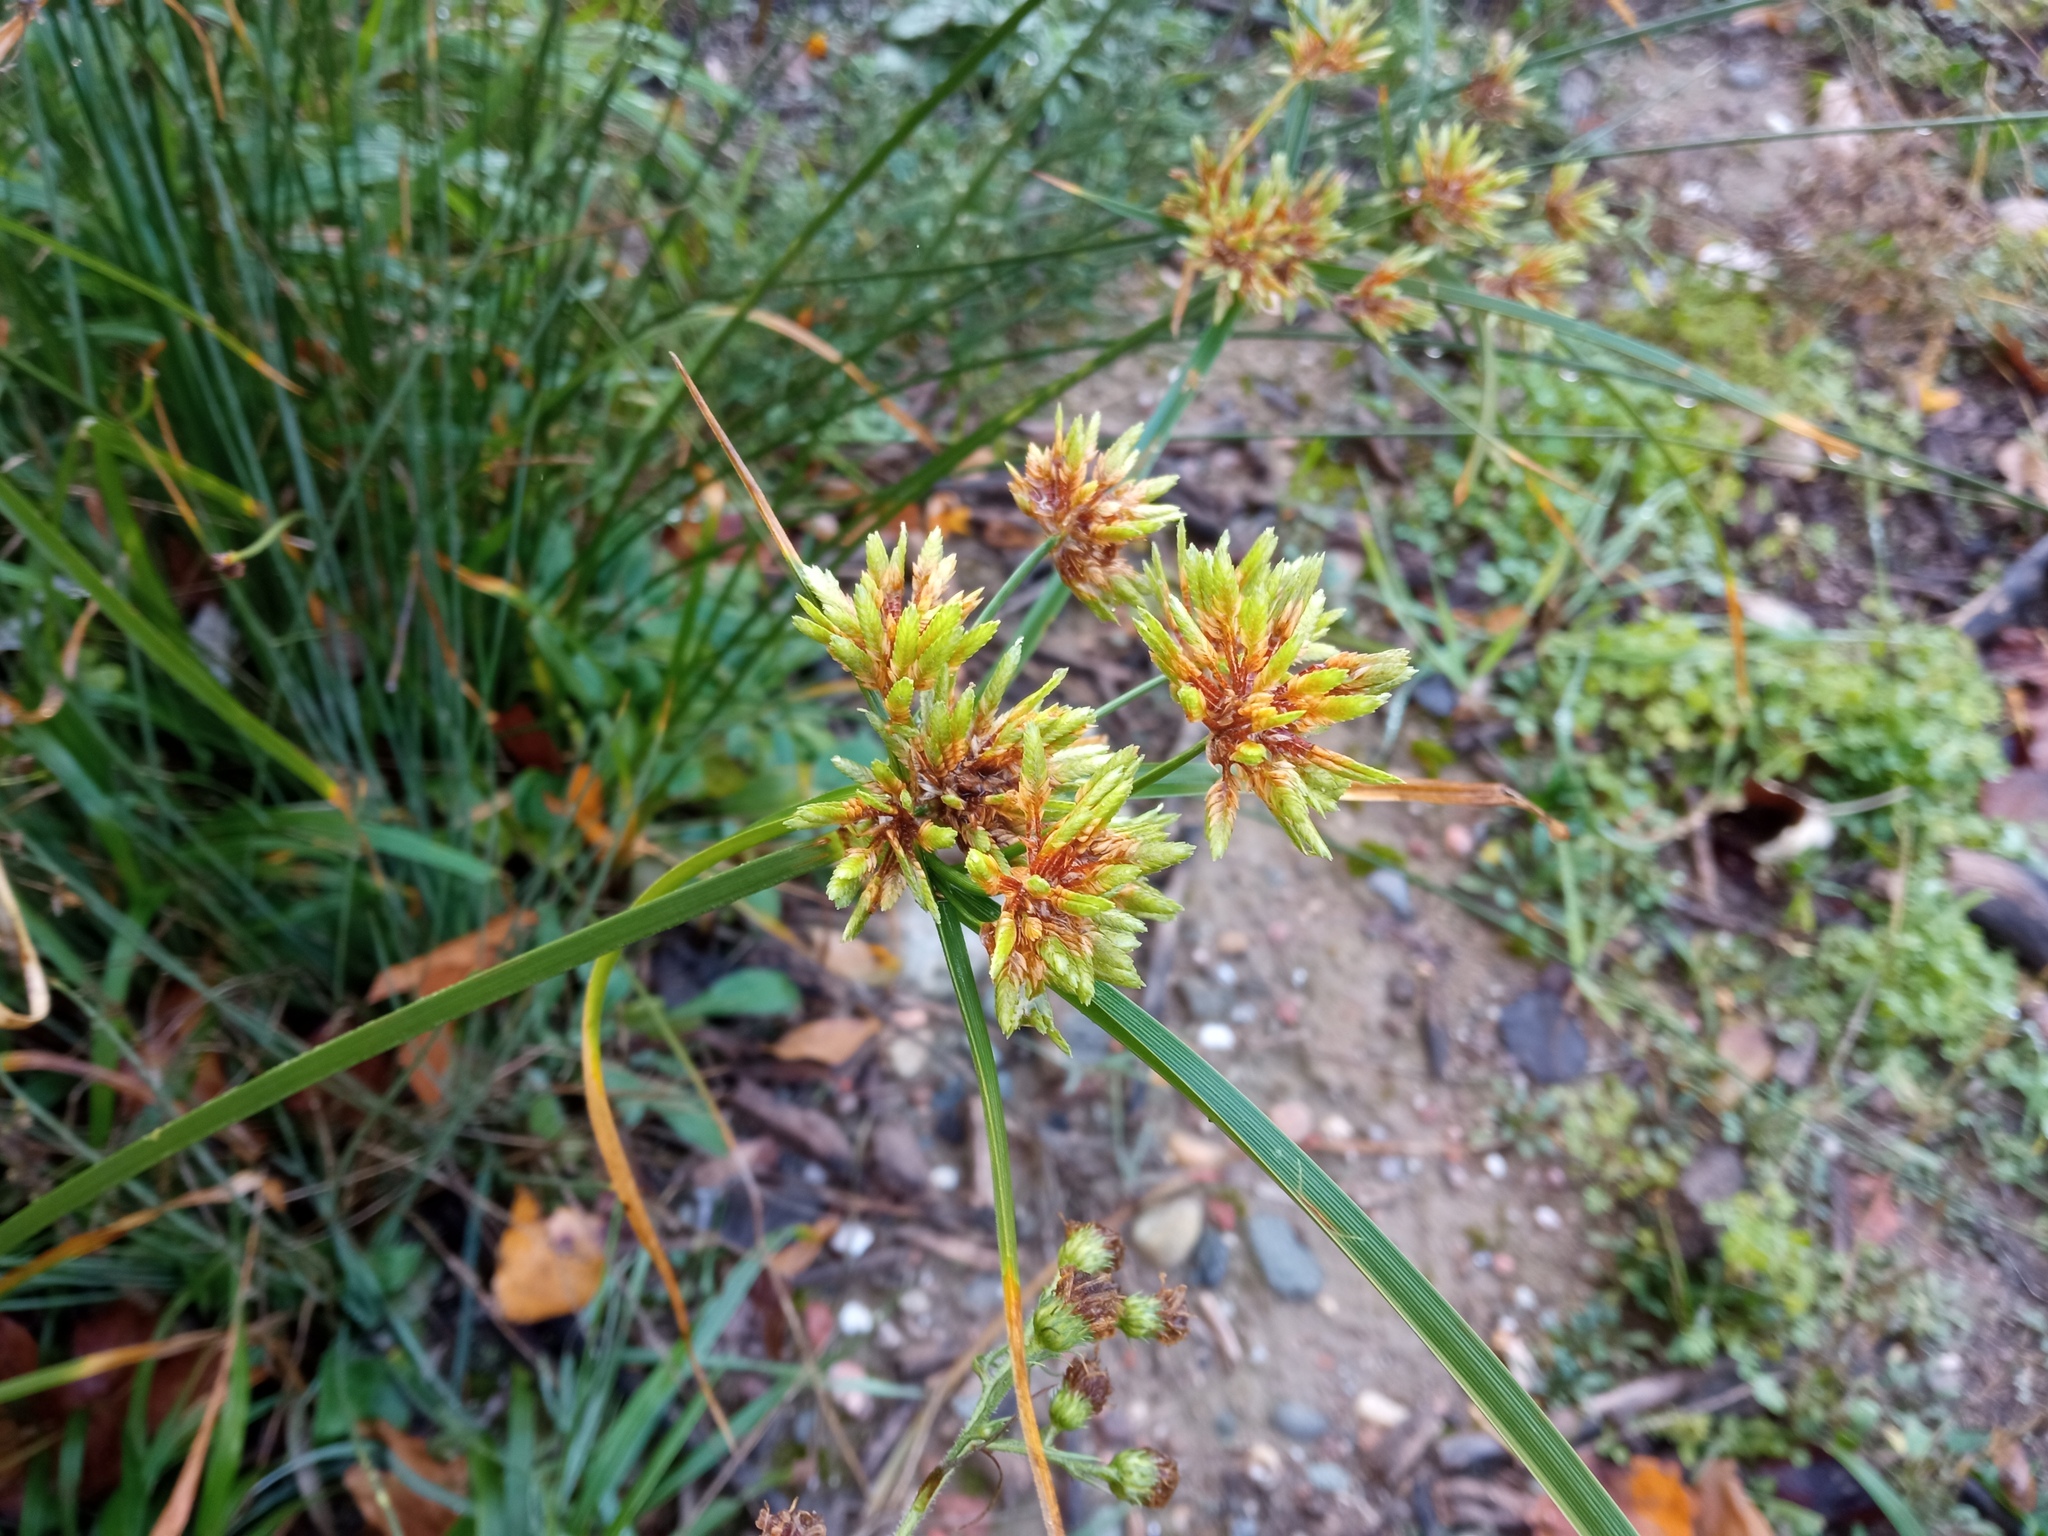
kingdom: Plantae
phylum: Tracheophyta
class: Liliopsida
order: Poales
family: Cyperaceae
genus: Cyperus
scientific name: Cyperus eragrostis
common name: Tall flatsedge
